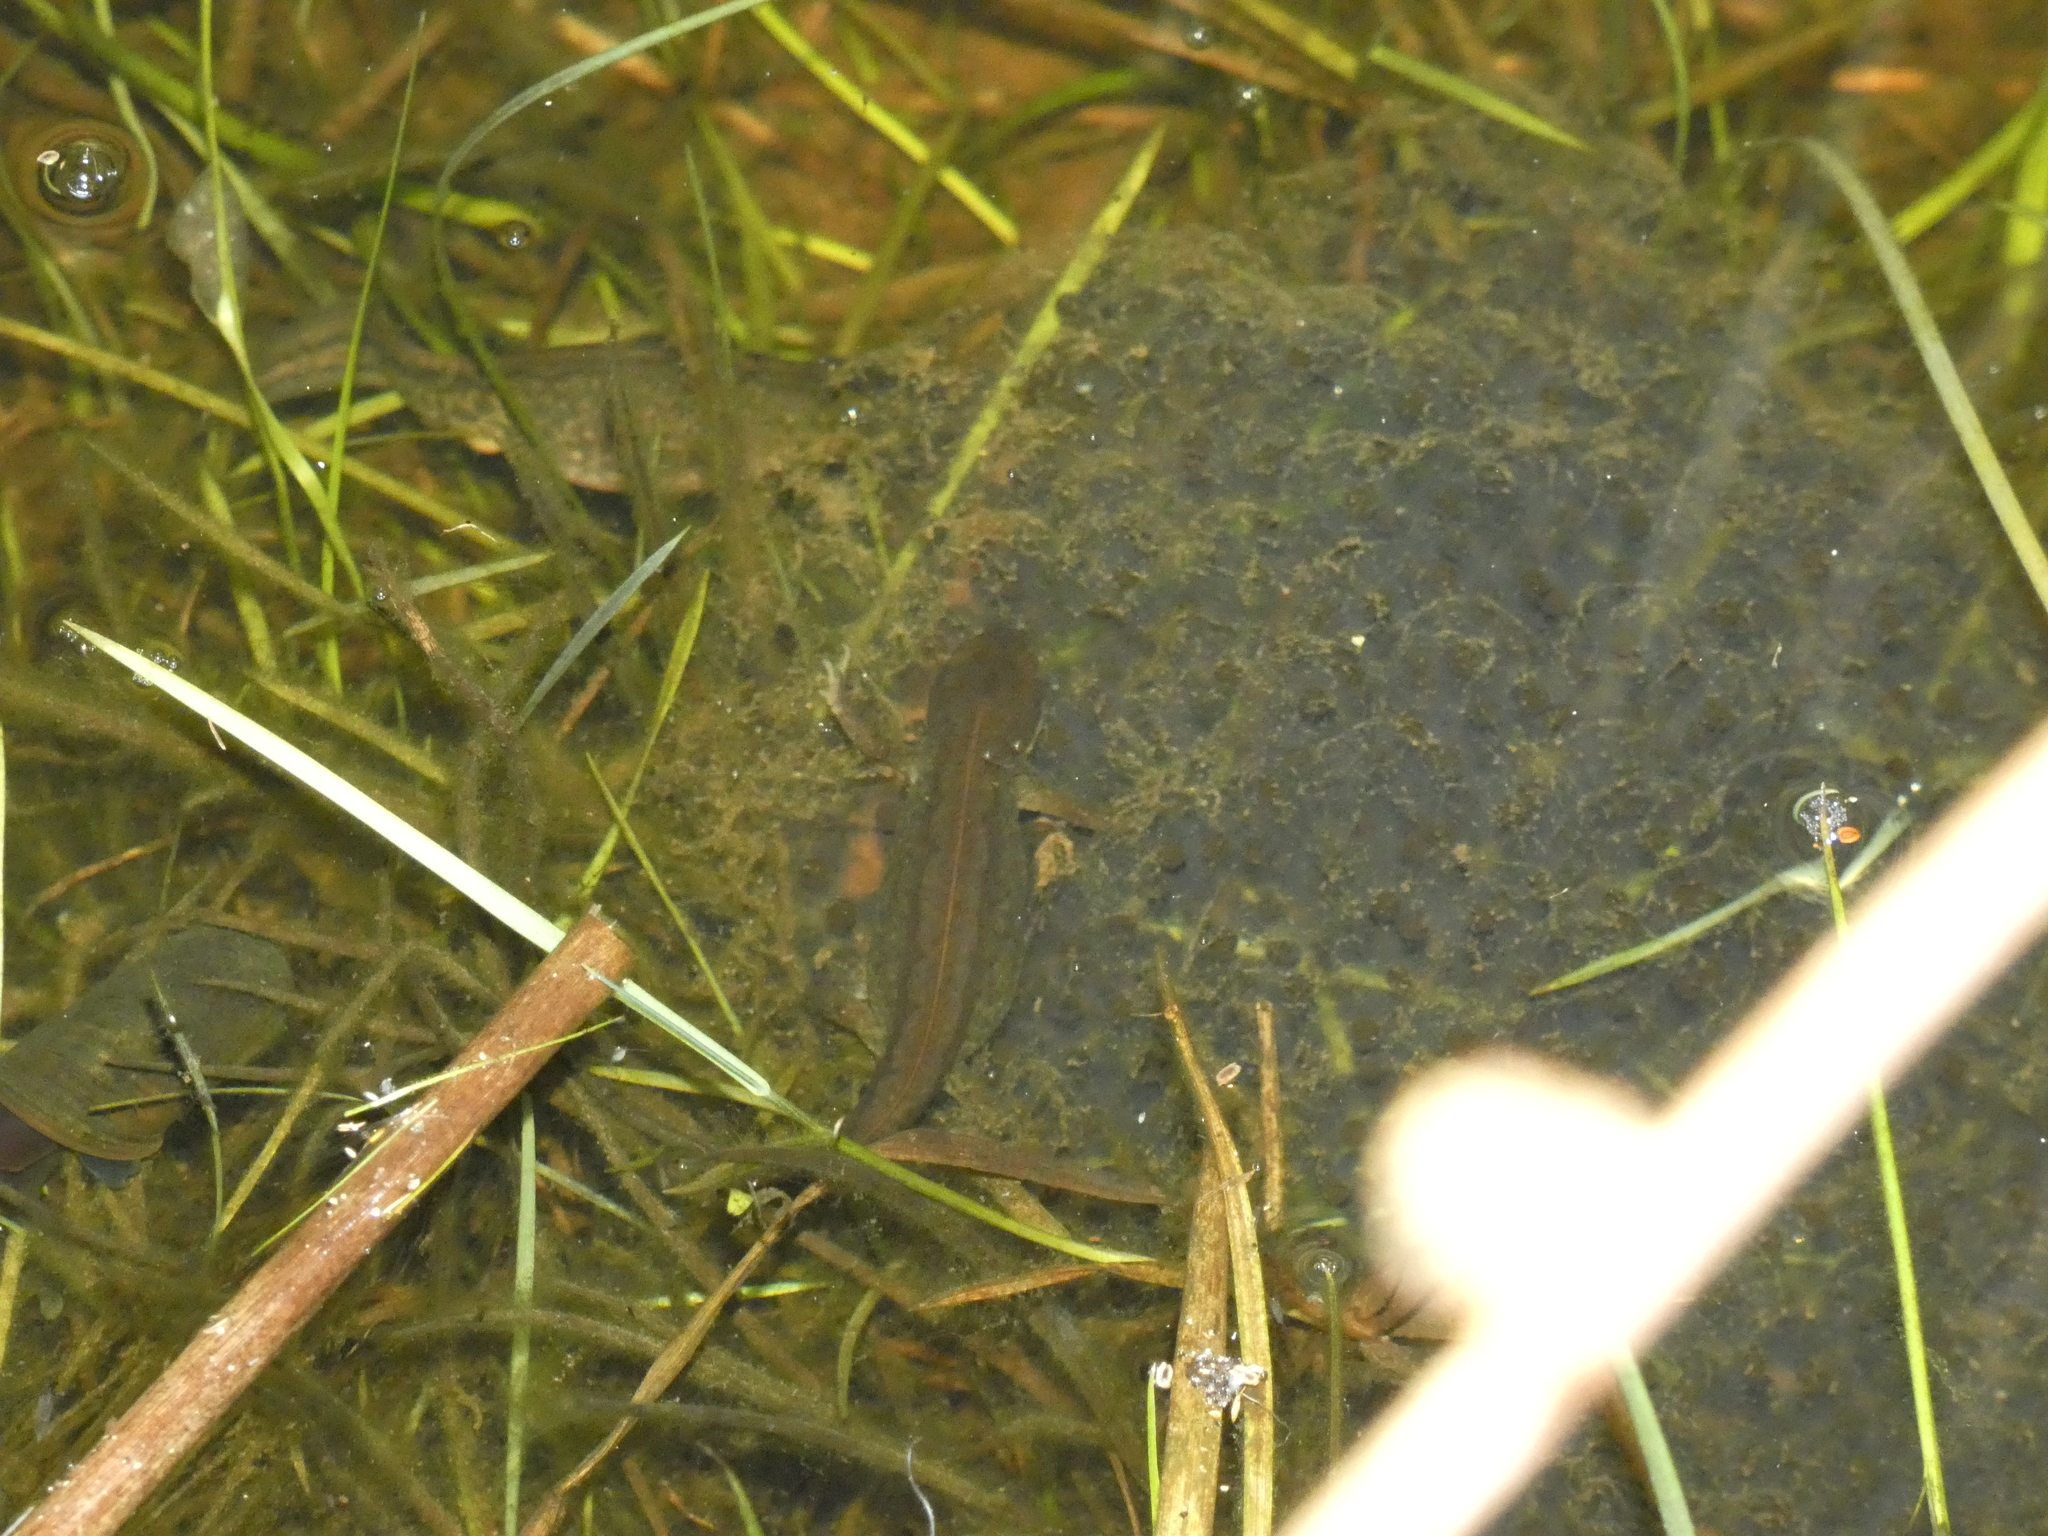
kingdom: Animalia
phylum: Chordata
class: Amphibia
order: Caudata
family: Salamandridae
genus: Lissotriton
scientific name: Lissotriton helveticus
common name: Palmate newt
